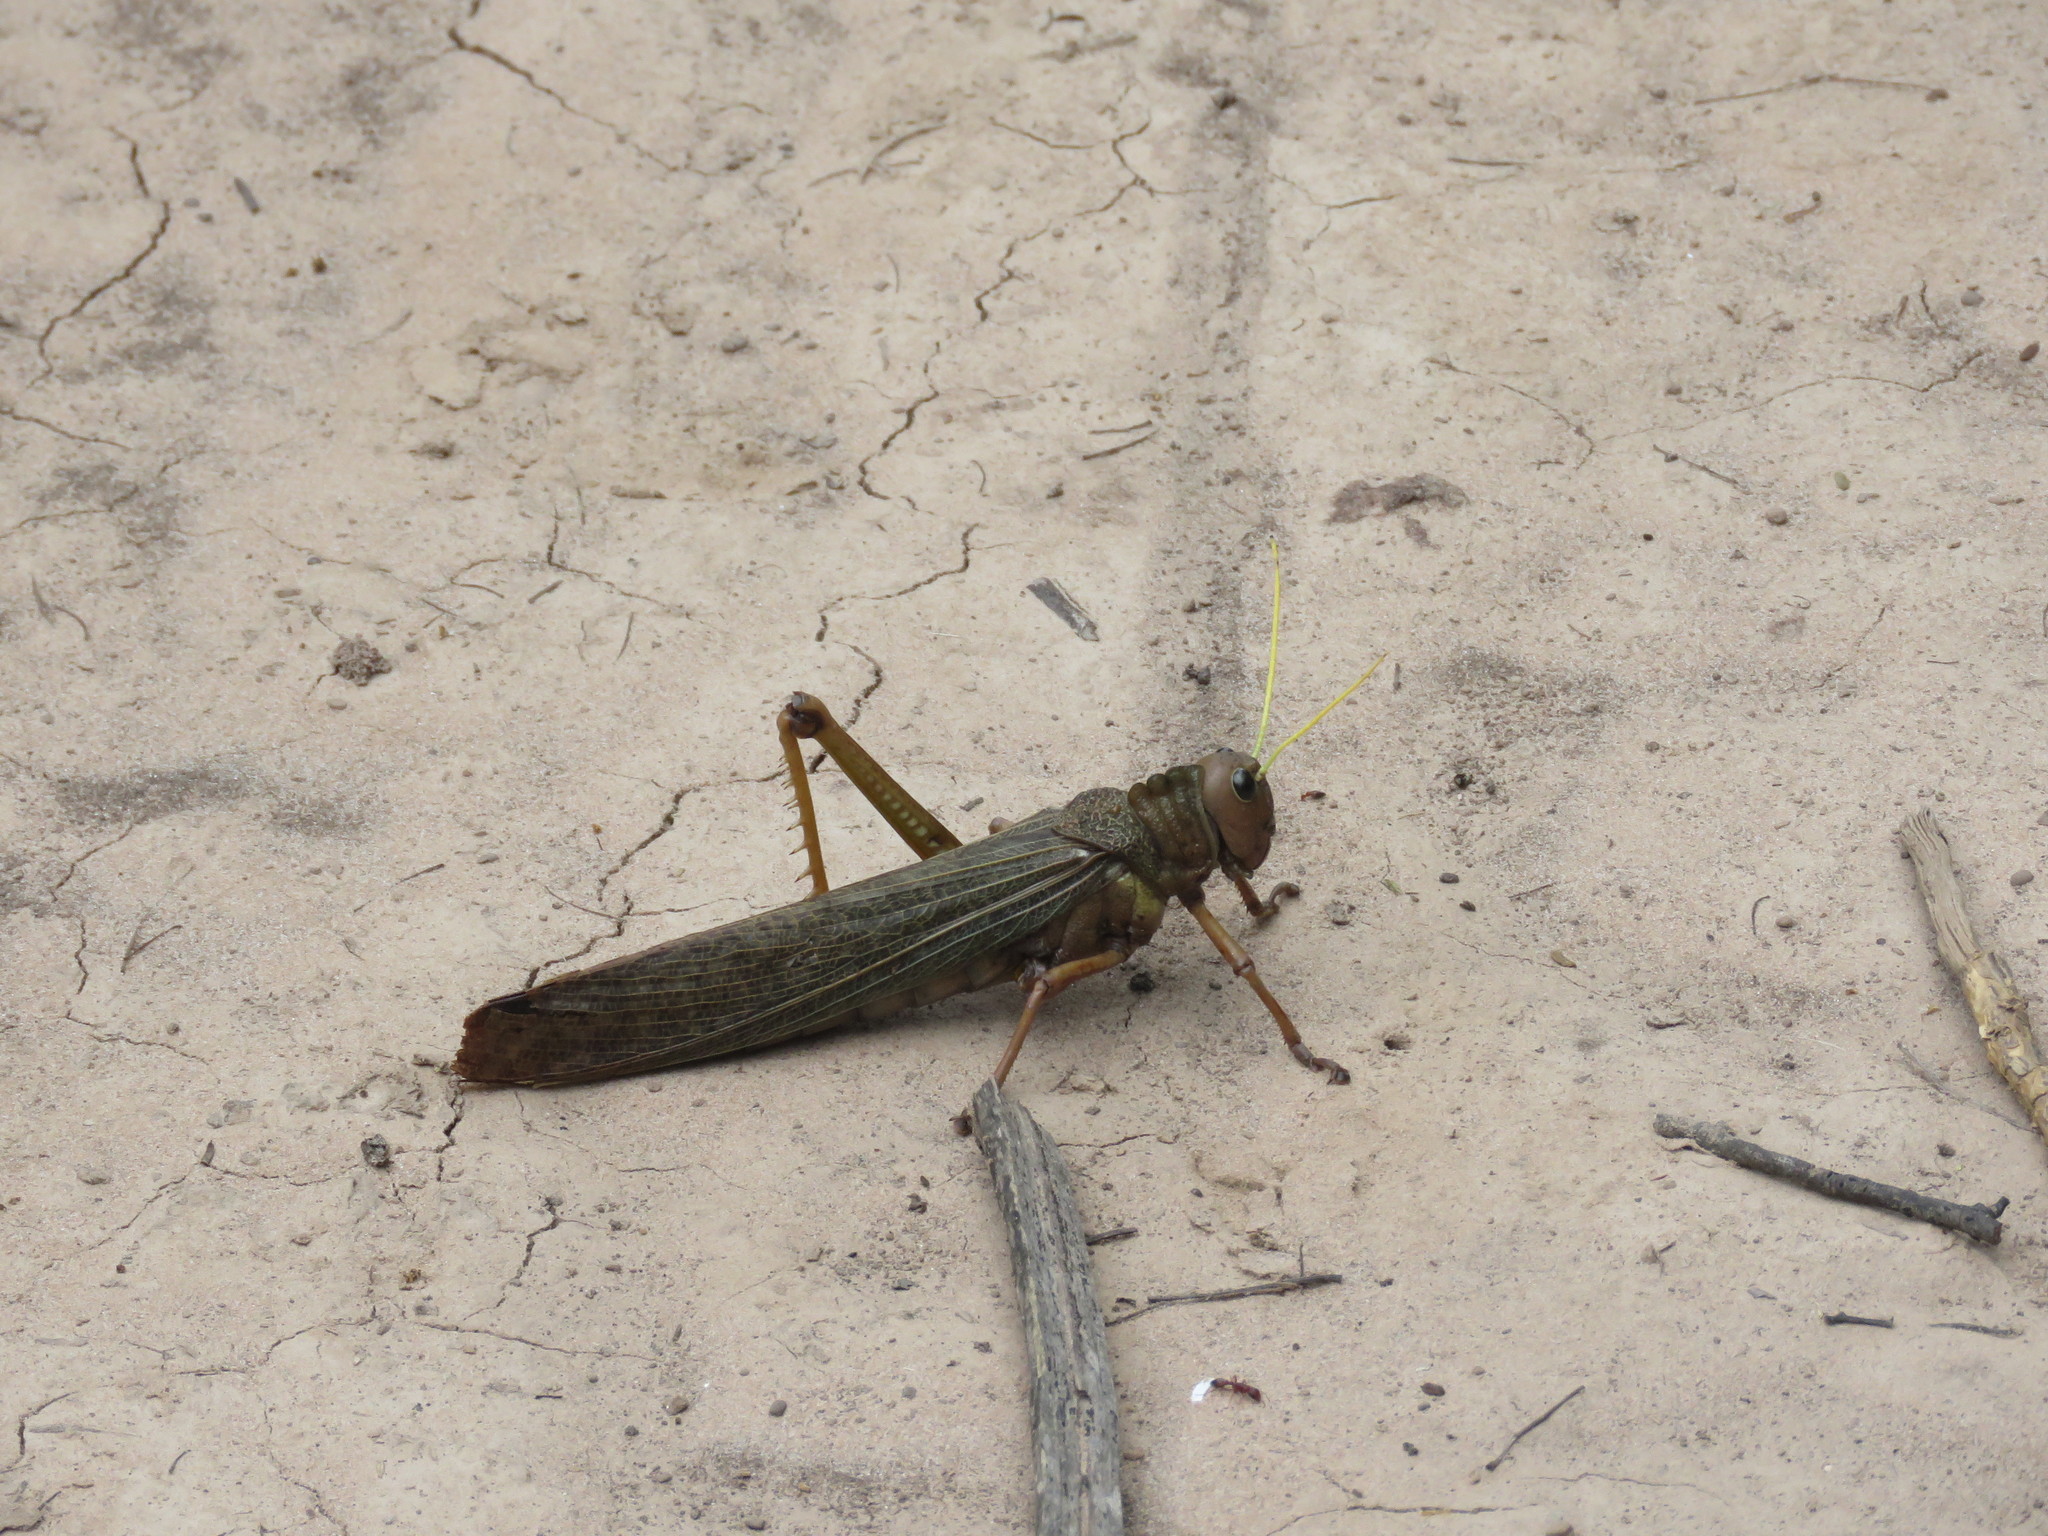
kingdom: Animalia
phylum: Arthropoda
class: Insecta
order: Orthoptera
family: Romaleidae
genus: Tropidacris
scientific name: Tropidacris collaris
